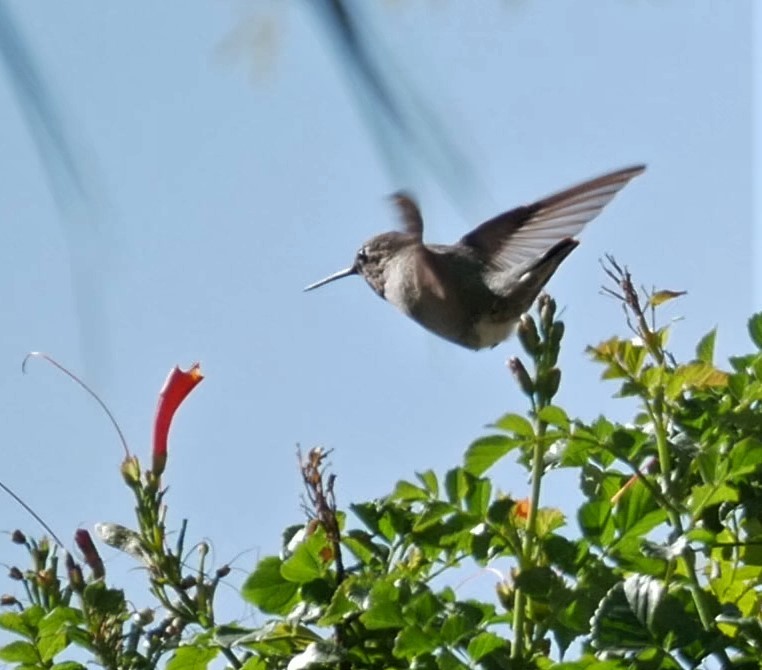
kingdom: Animalia
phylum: Chordata
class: Aves
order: Apodiformes
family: Trochilidae
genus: Calypte
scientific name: Calypte anna
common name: Anna's hummingbird
